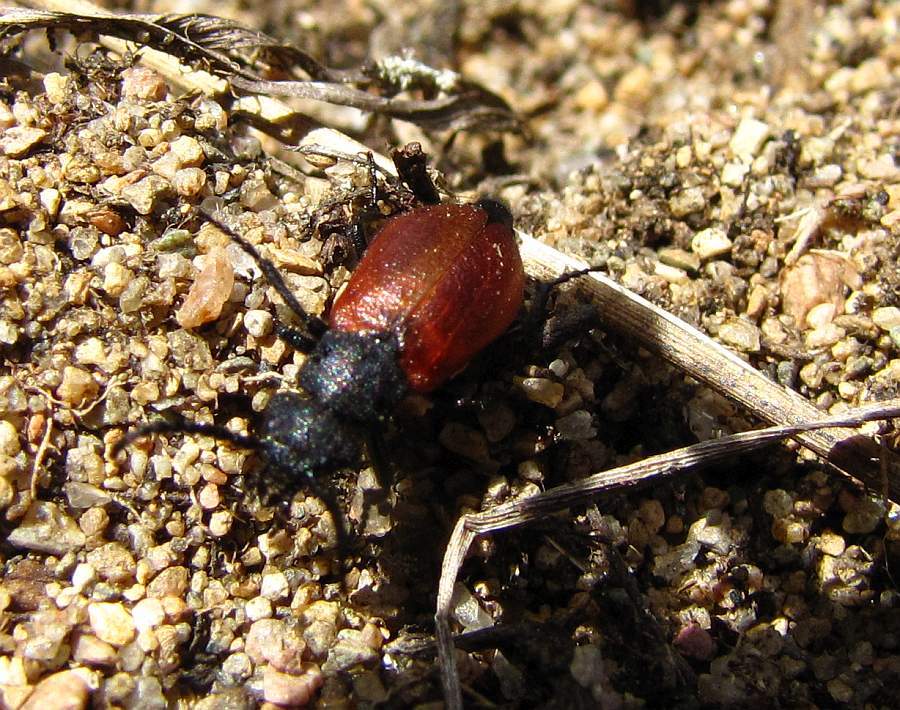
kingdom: Animalia
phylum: Arthropoda
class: Insecta
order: Coleoptera
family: Meloidae
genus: Tricrania
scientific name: Tricrania sanguinipennis
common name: Blood-winged blister beetle
